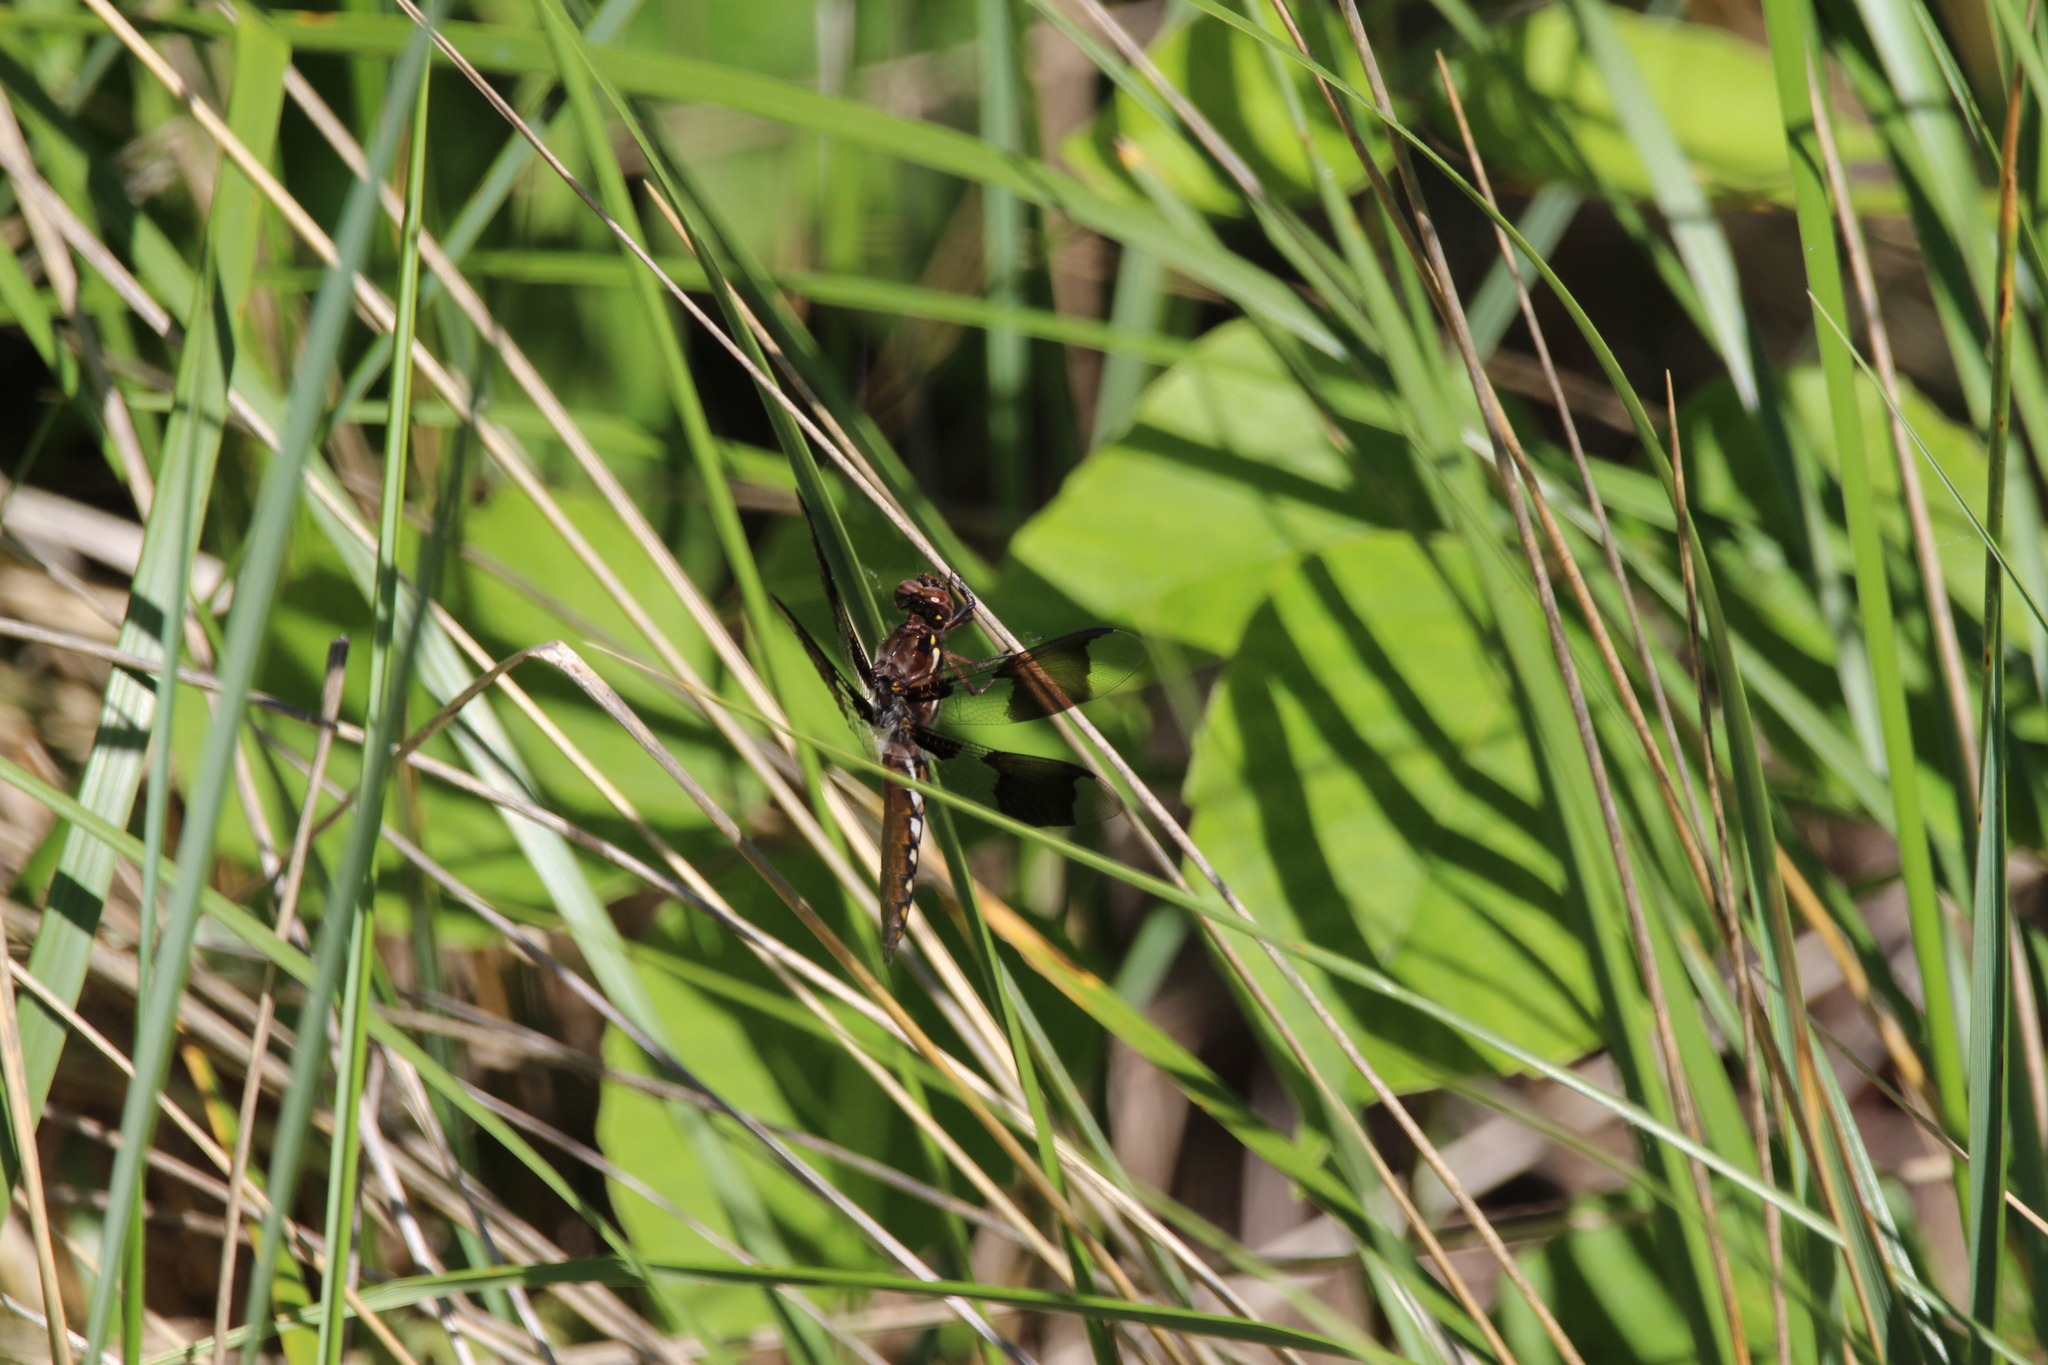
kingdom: Animalia
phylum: Arthropoda
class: Insecta
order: Odonata
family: Libellulidae
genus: Plathemis
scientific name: Plathemis lydia
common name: Common whitetail
